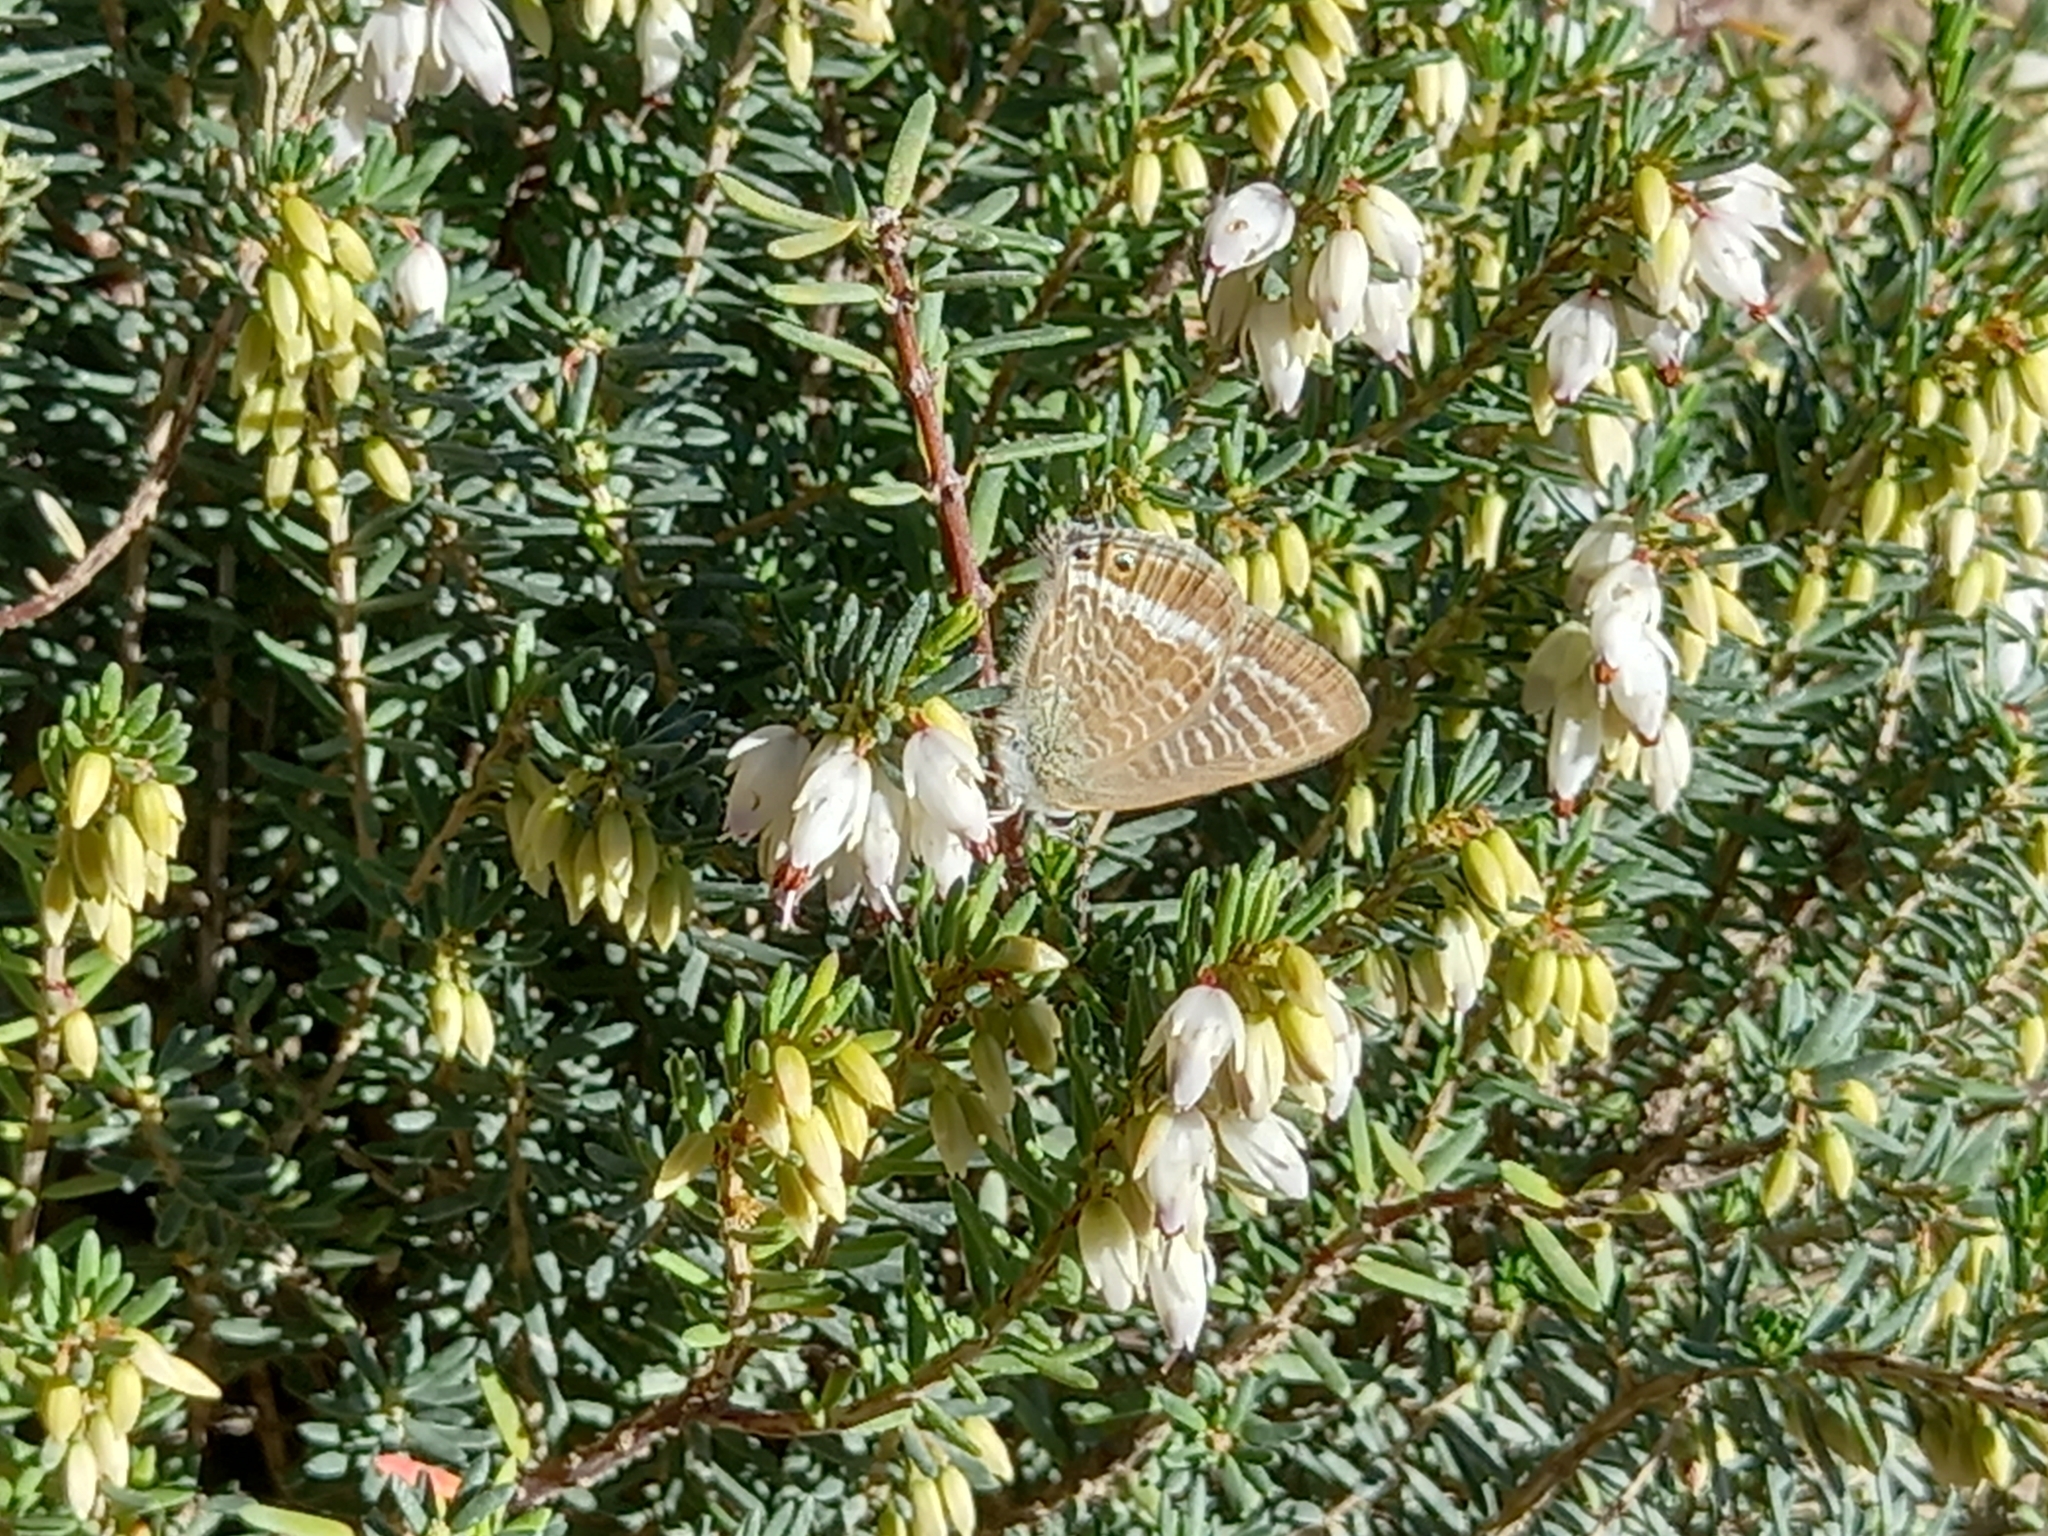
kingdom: Animalia
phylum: Arthropoda
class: Insecta
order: Lepidoptera
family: Lycaenidae
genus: Lampides
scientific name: Lampides boeticus
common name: Long-tailed blue
